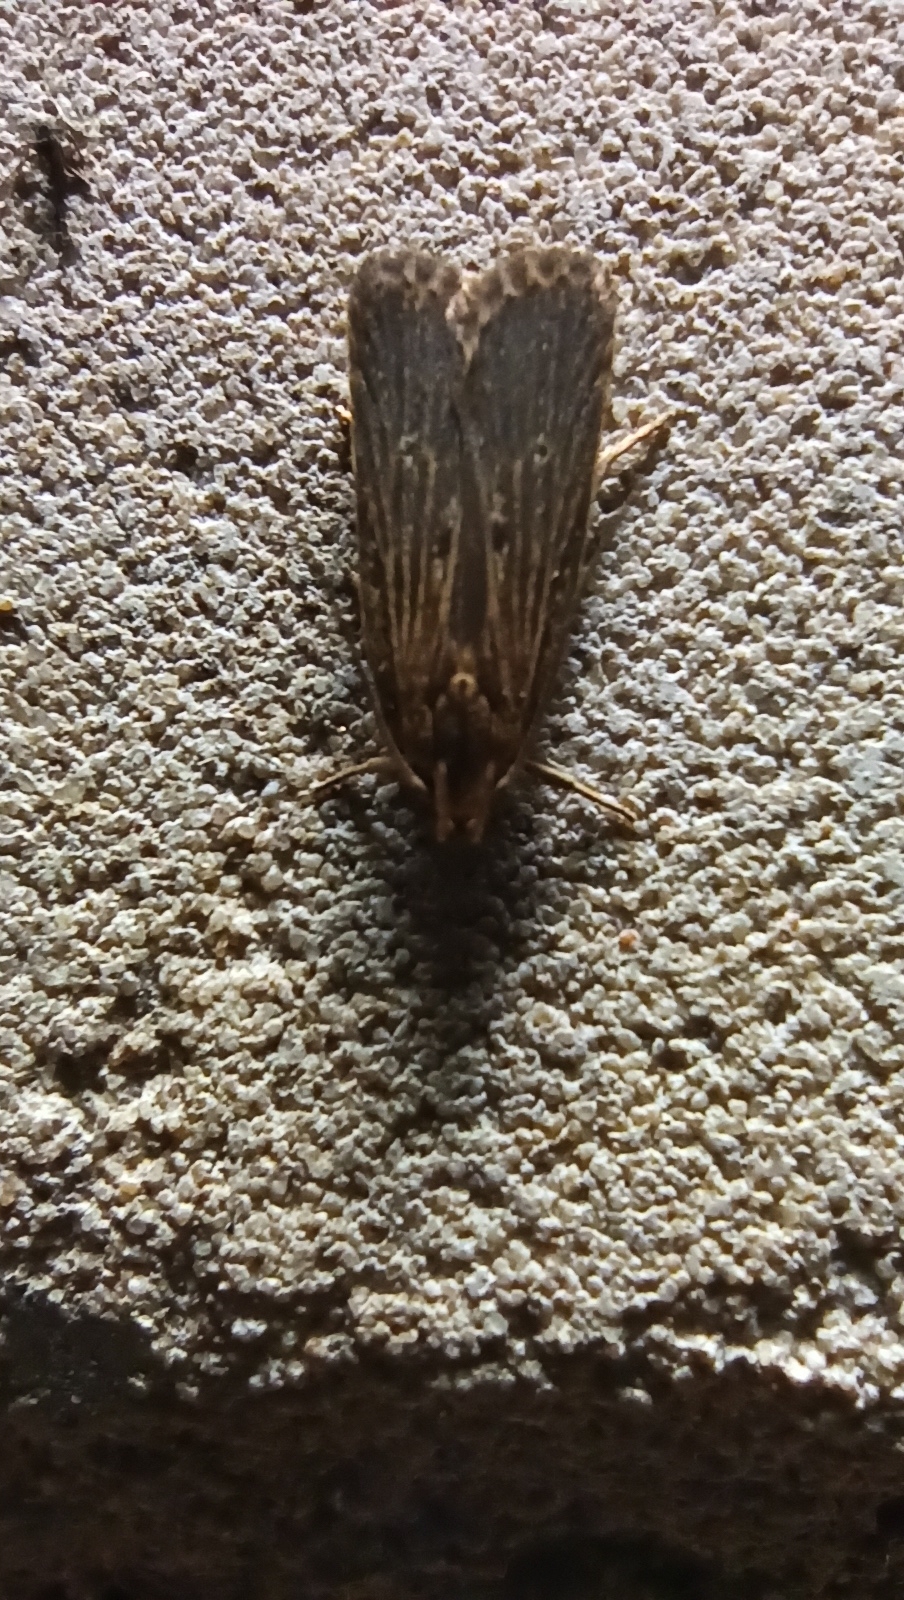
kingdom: Animalia
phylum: Arthropoda
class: Insecta
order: Lepidoptera
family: Gelechiidae
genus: Helcystogramma
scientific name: Helcystogramma arulensis
